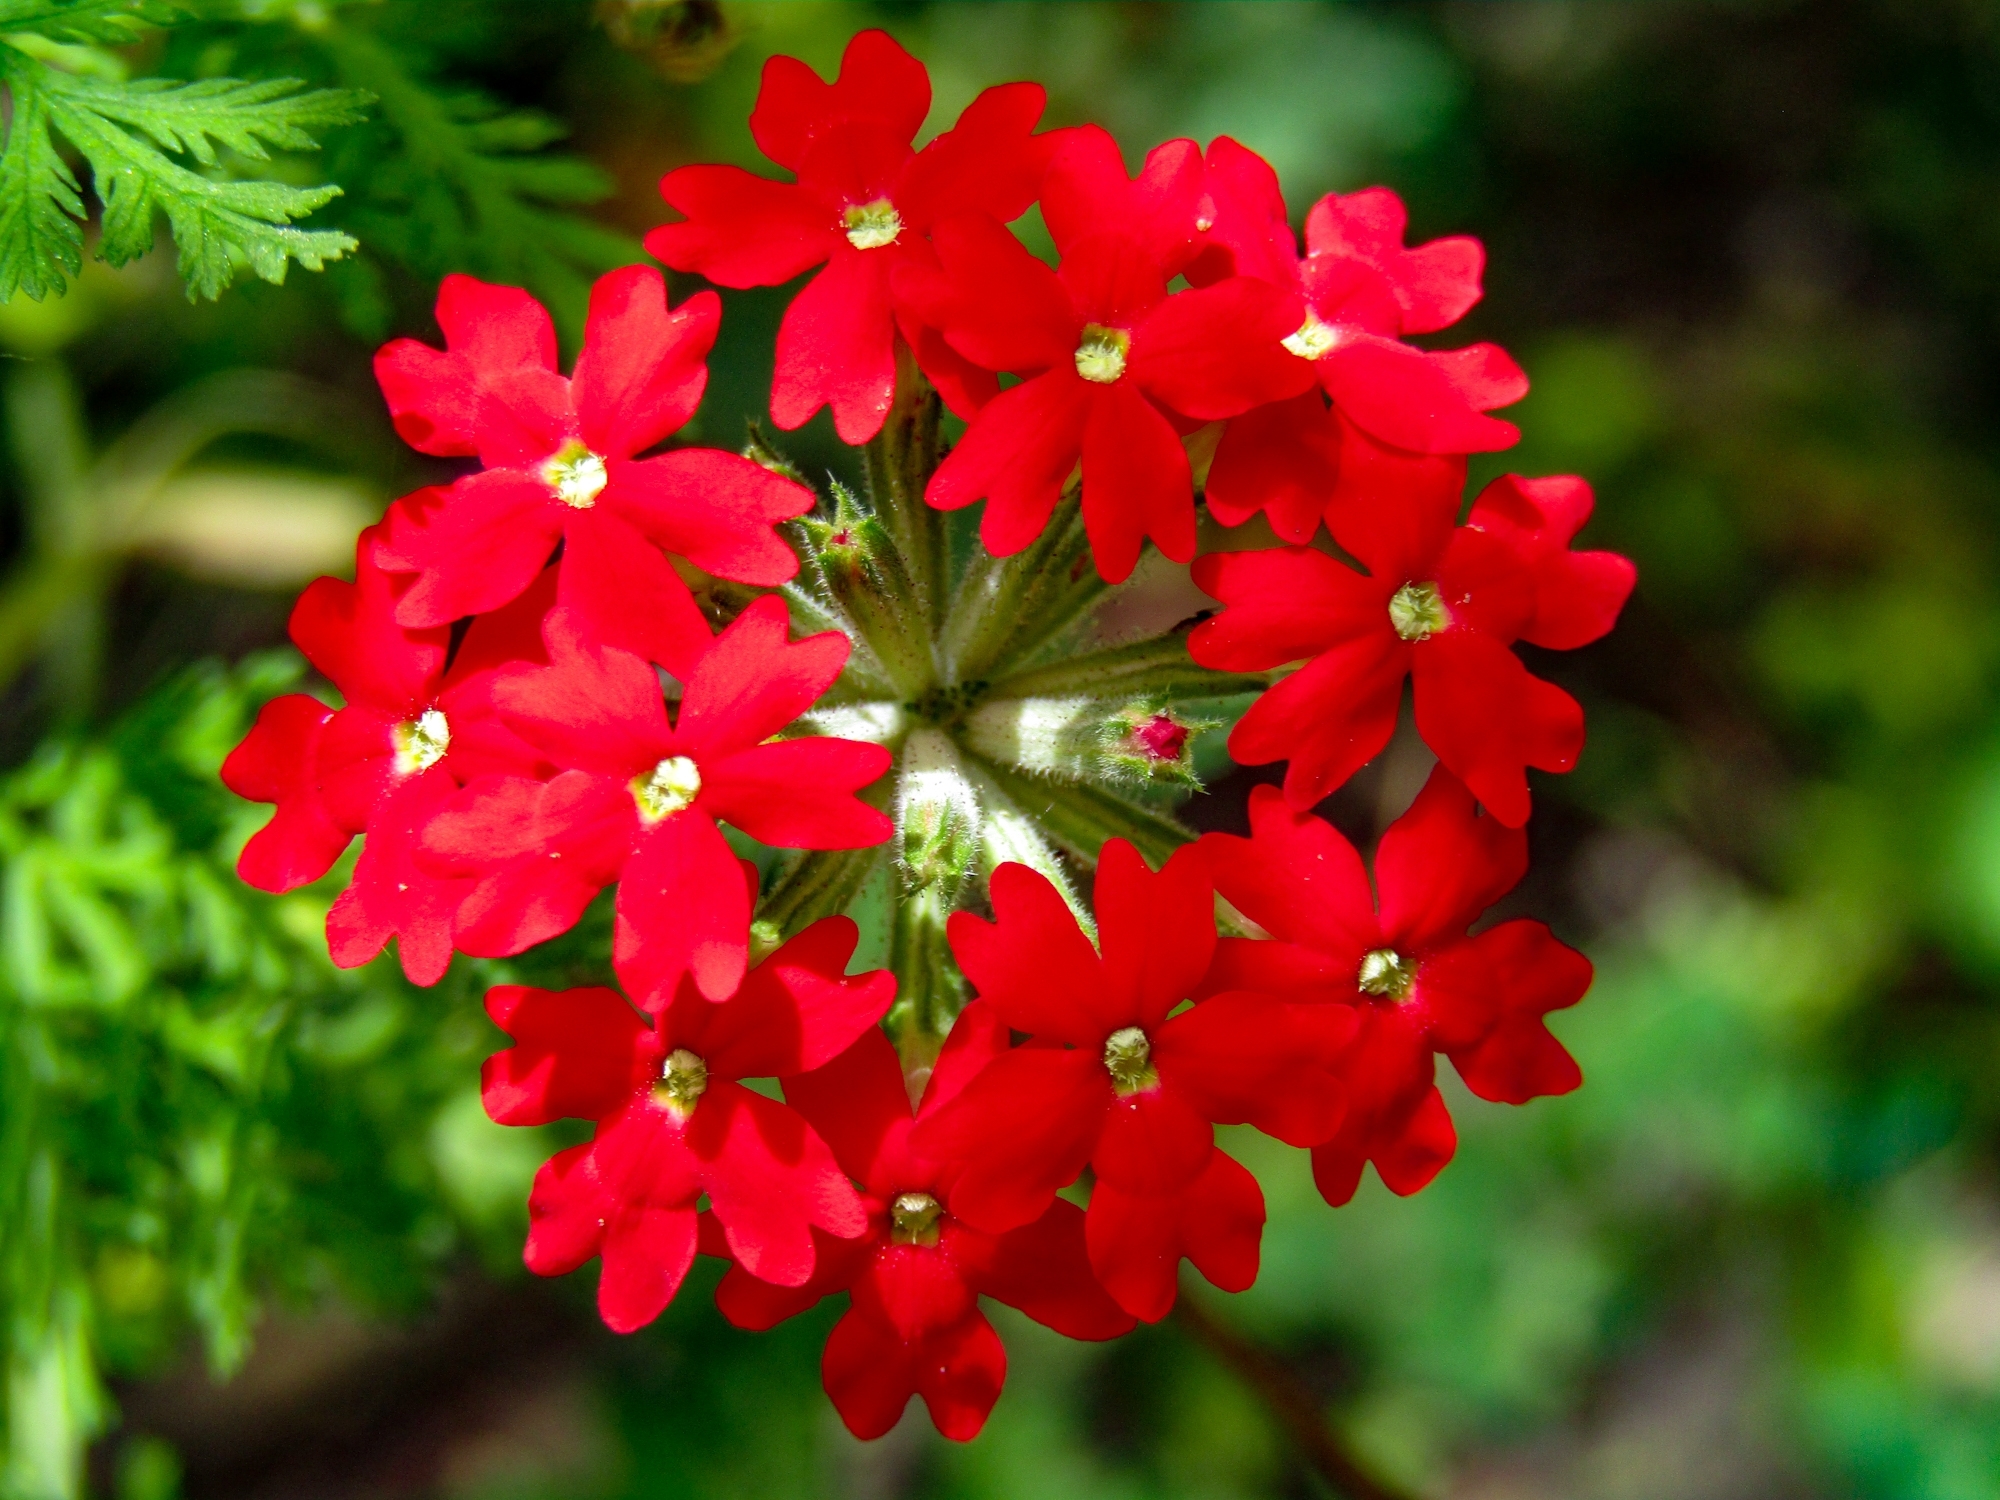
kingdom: Plantae
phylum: Tracheophyta
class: Magnoliopsida
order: Lamiales
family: Verbenaceae
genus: Verbena
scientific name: Verbena tweedieana
